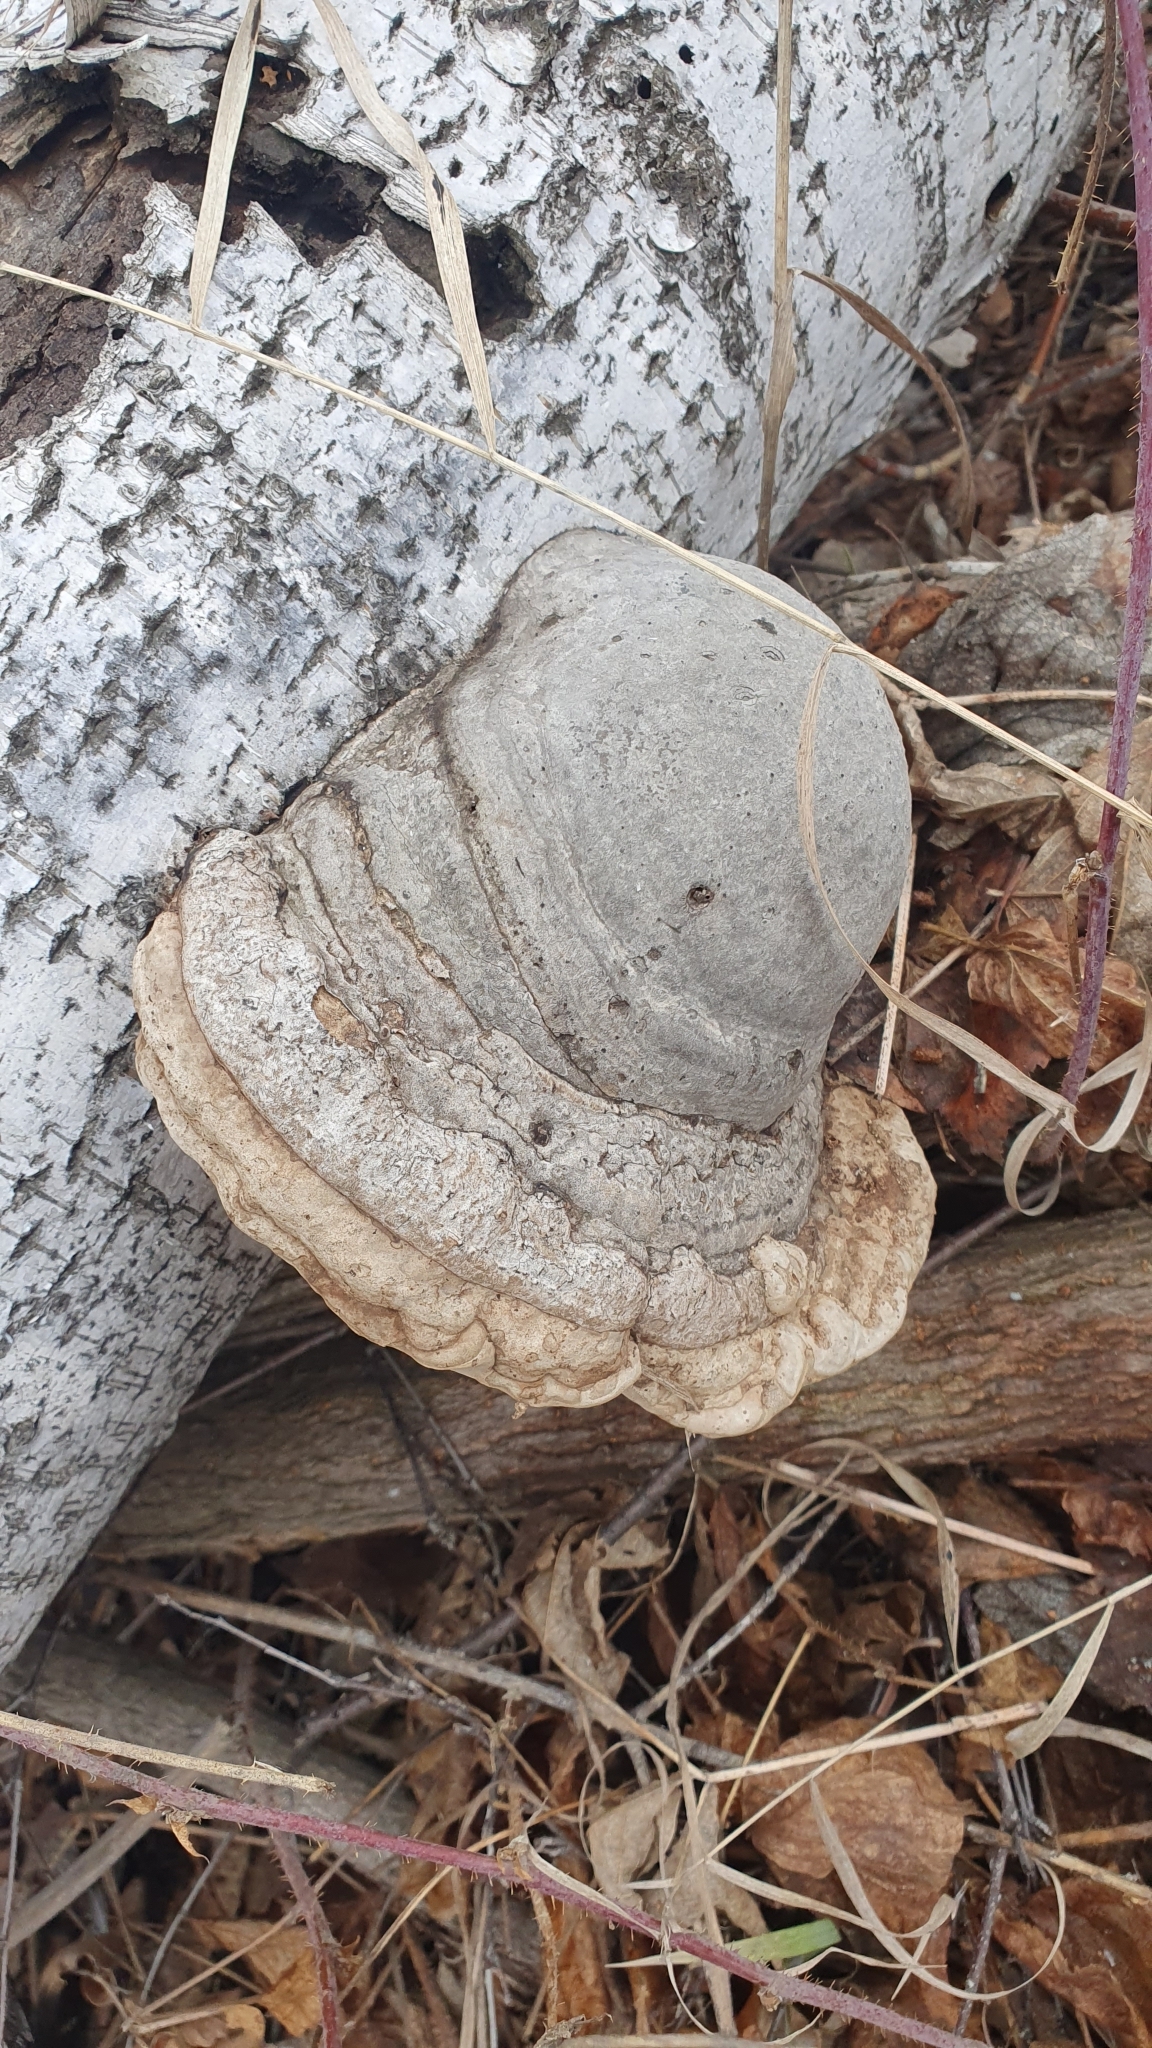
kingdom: Fungi
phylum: Basidiomycota
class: Agaricomycetes
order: Polyporales
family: Polyporaceae
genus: Fomes
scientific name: Fomes fomentarius
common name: Hoof fungus
